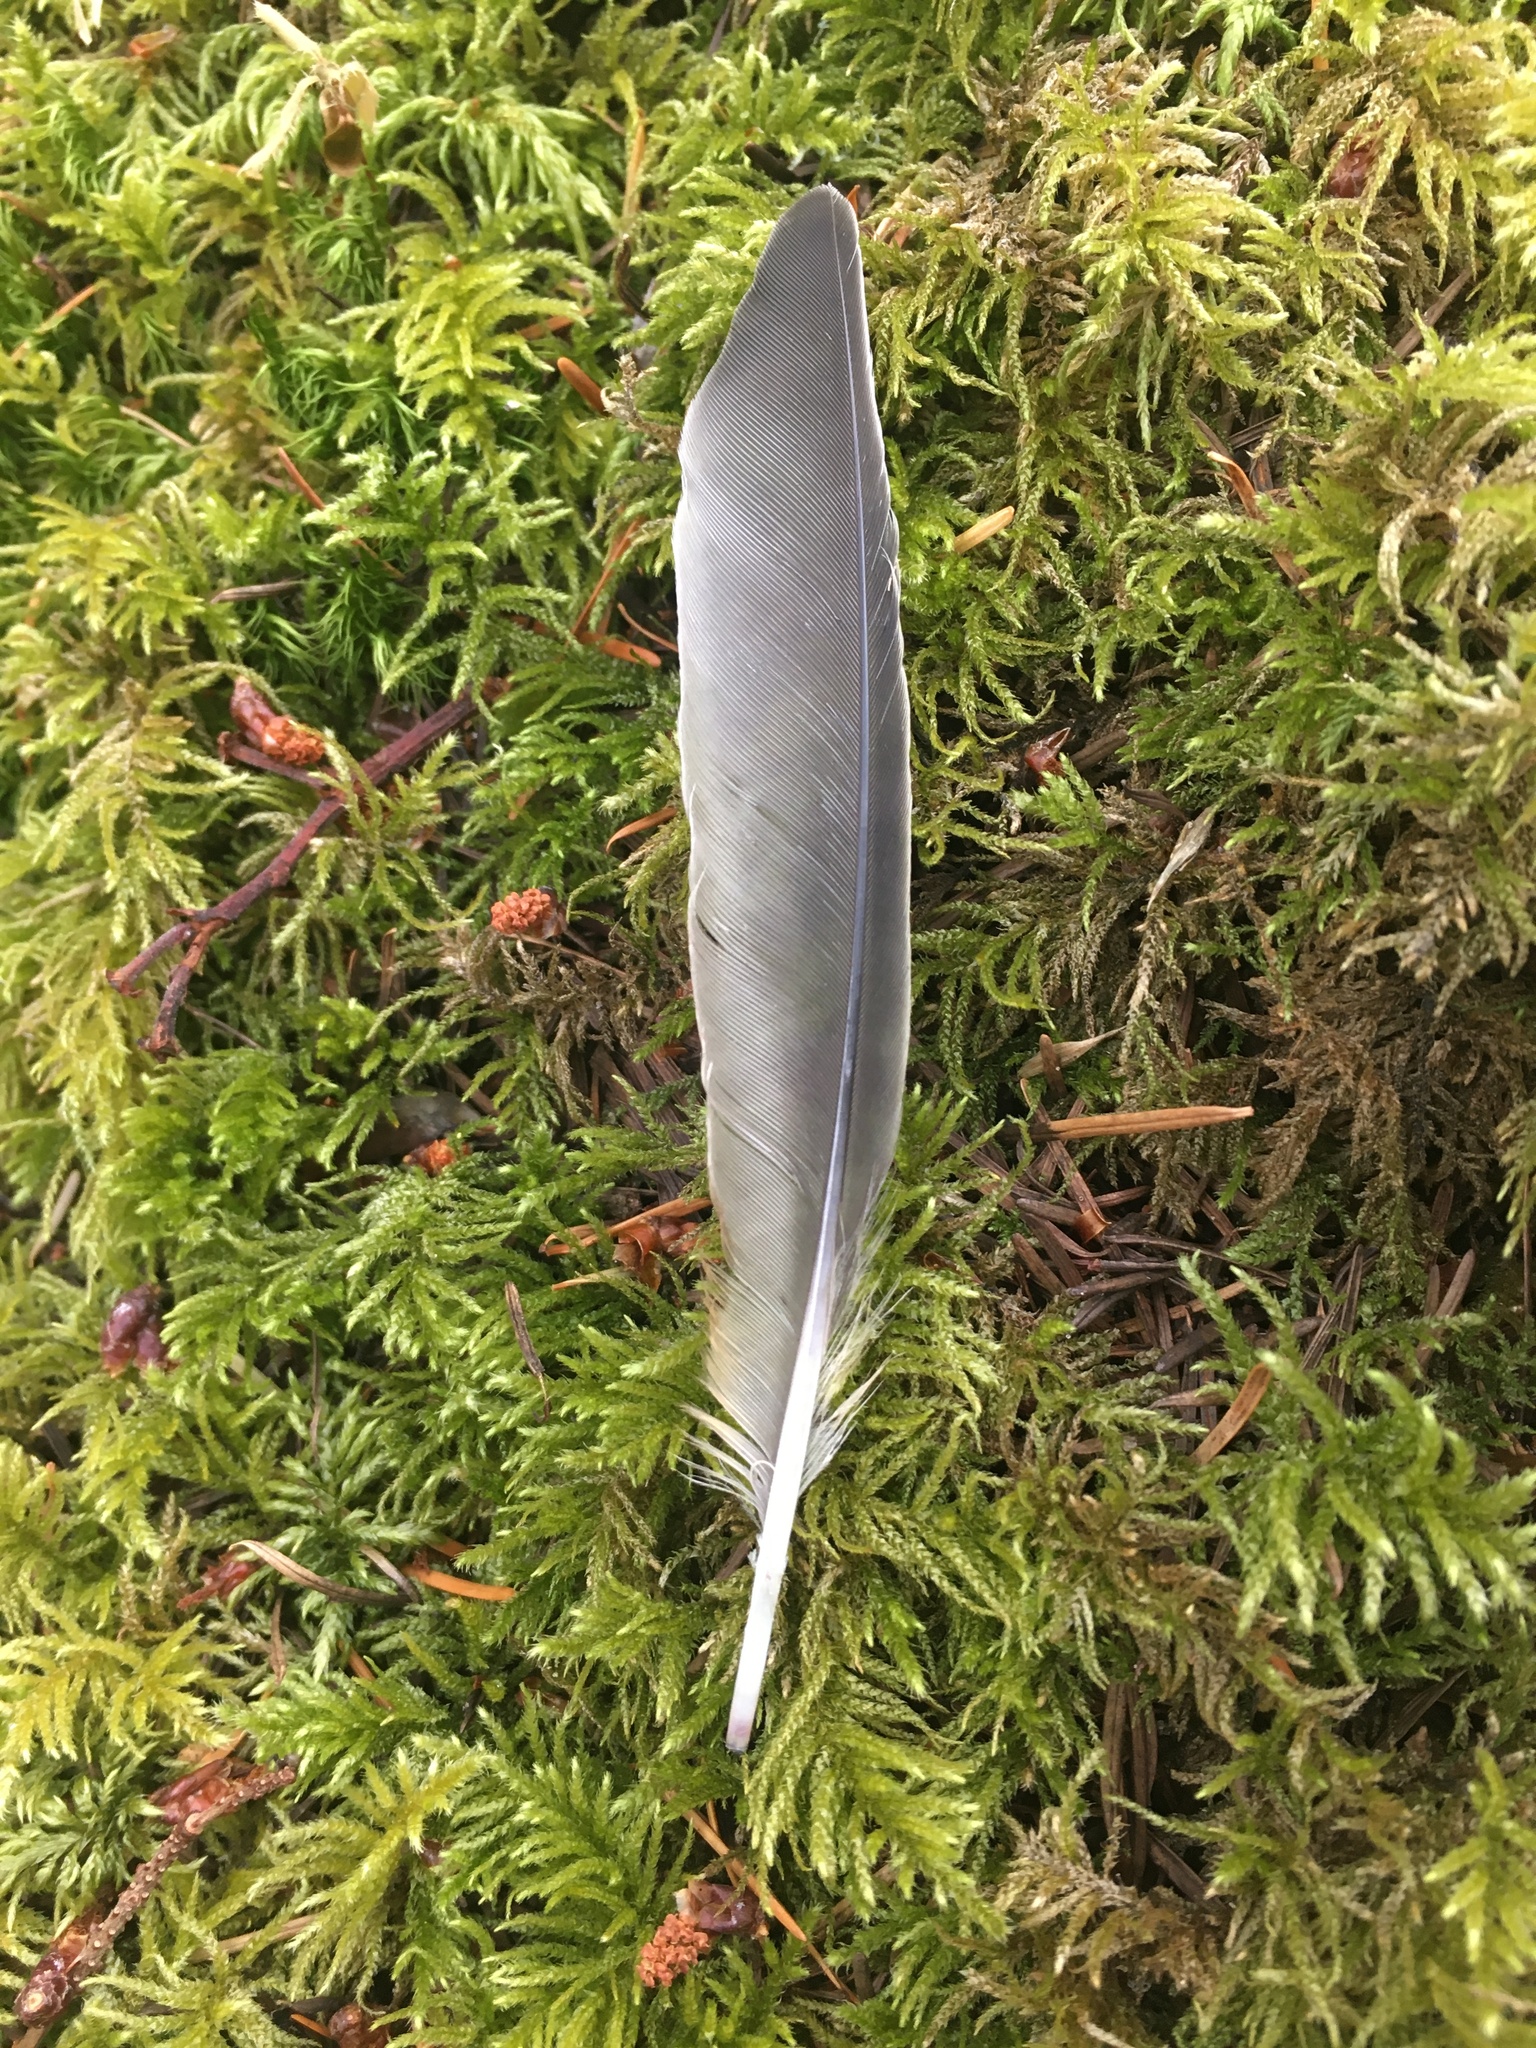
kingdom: Animalia
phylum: Chordata
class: Aves
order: Passeriformes
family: Turdidae
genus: Turdus
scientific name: Turdus migratorius
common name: American robin
